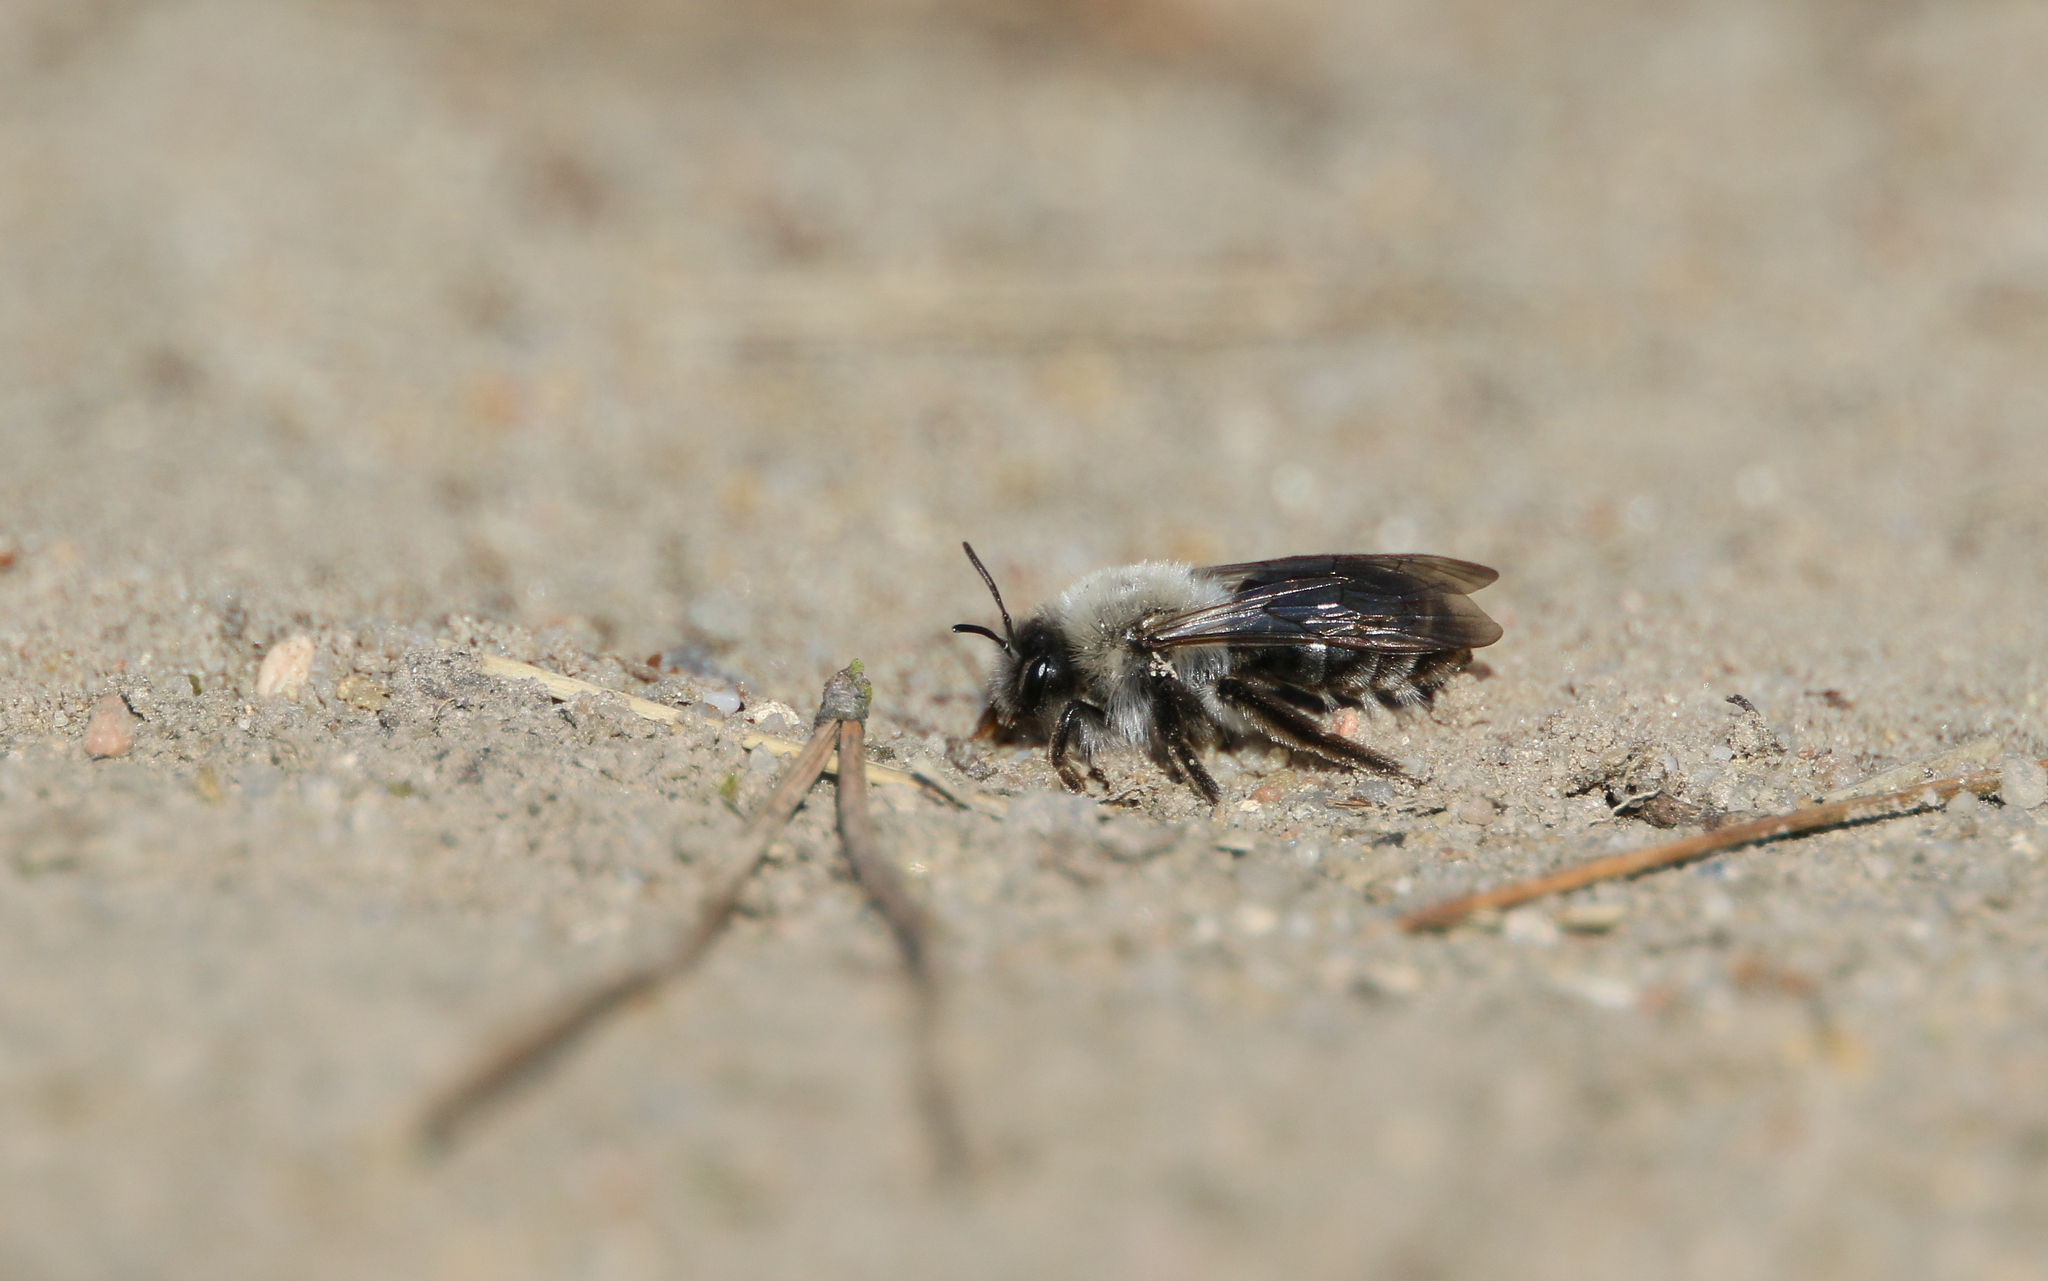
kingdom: Animalia
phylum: Arthropoda
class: Insecta
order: Hymenoptera
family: Andrenidae
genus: Andrena
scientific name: Andrena vaga
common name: Grey-backed mining bee
